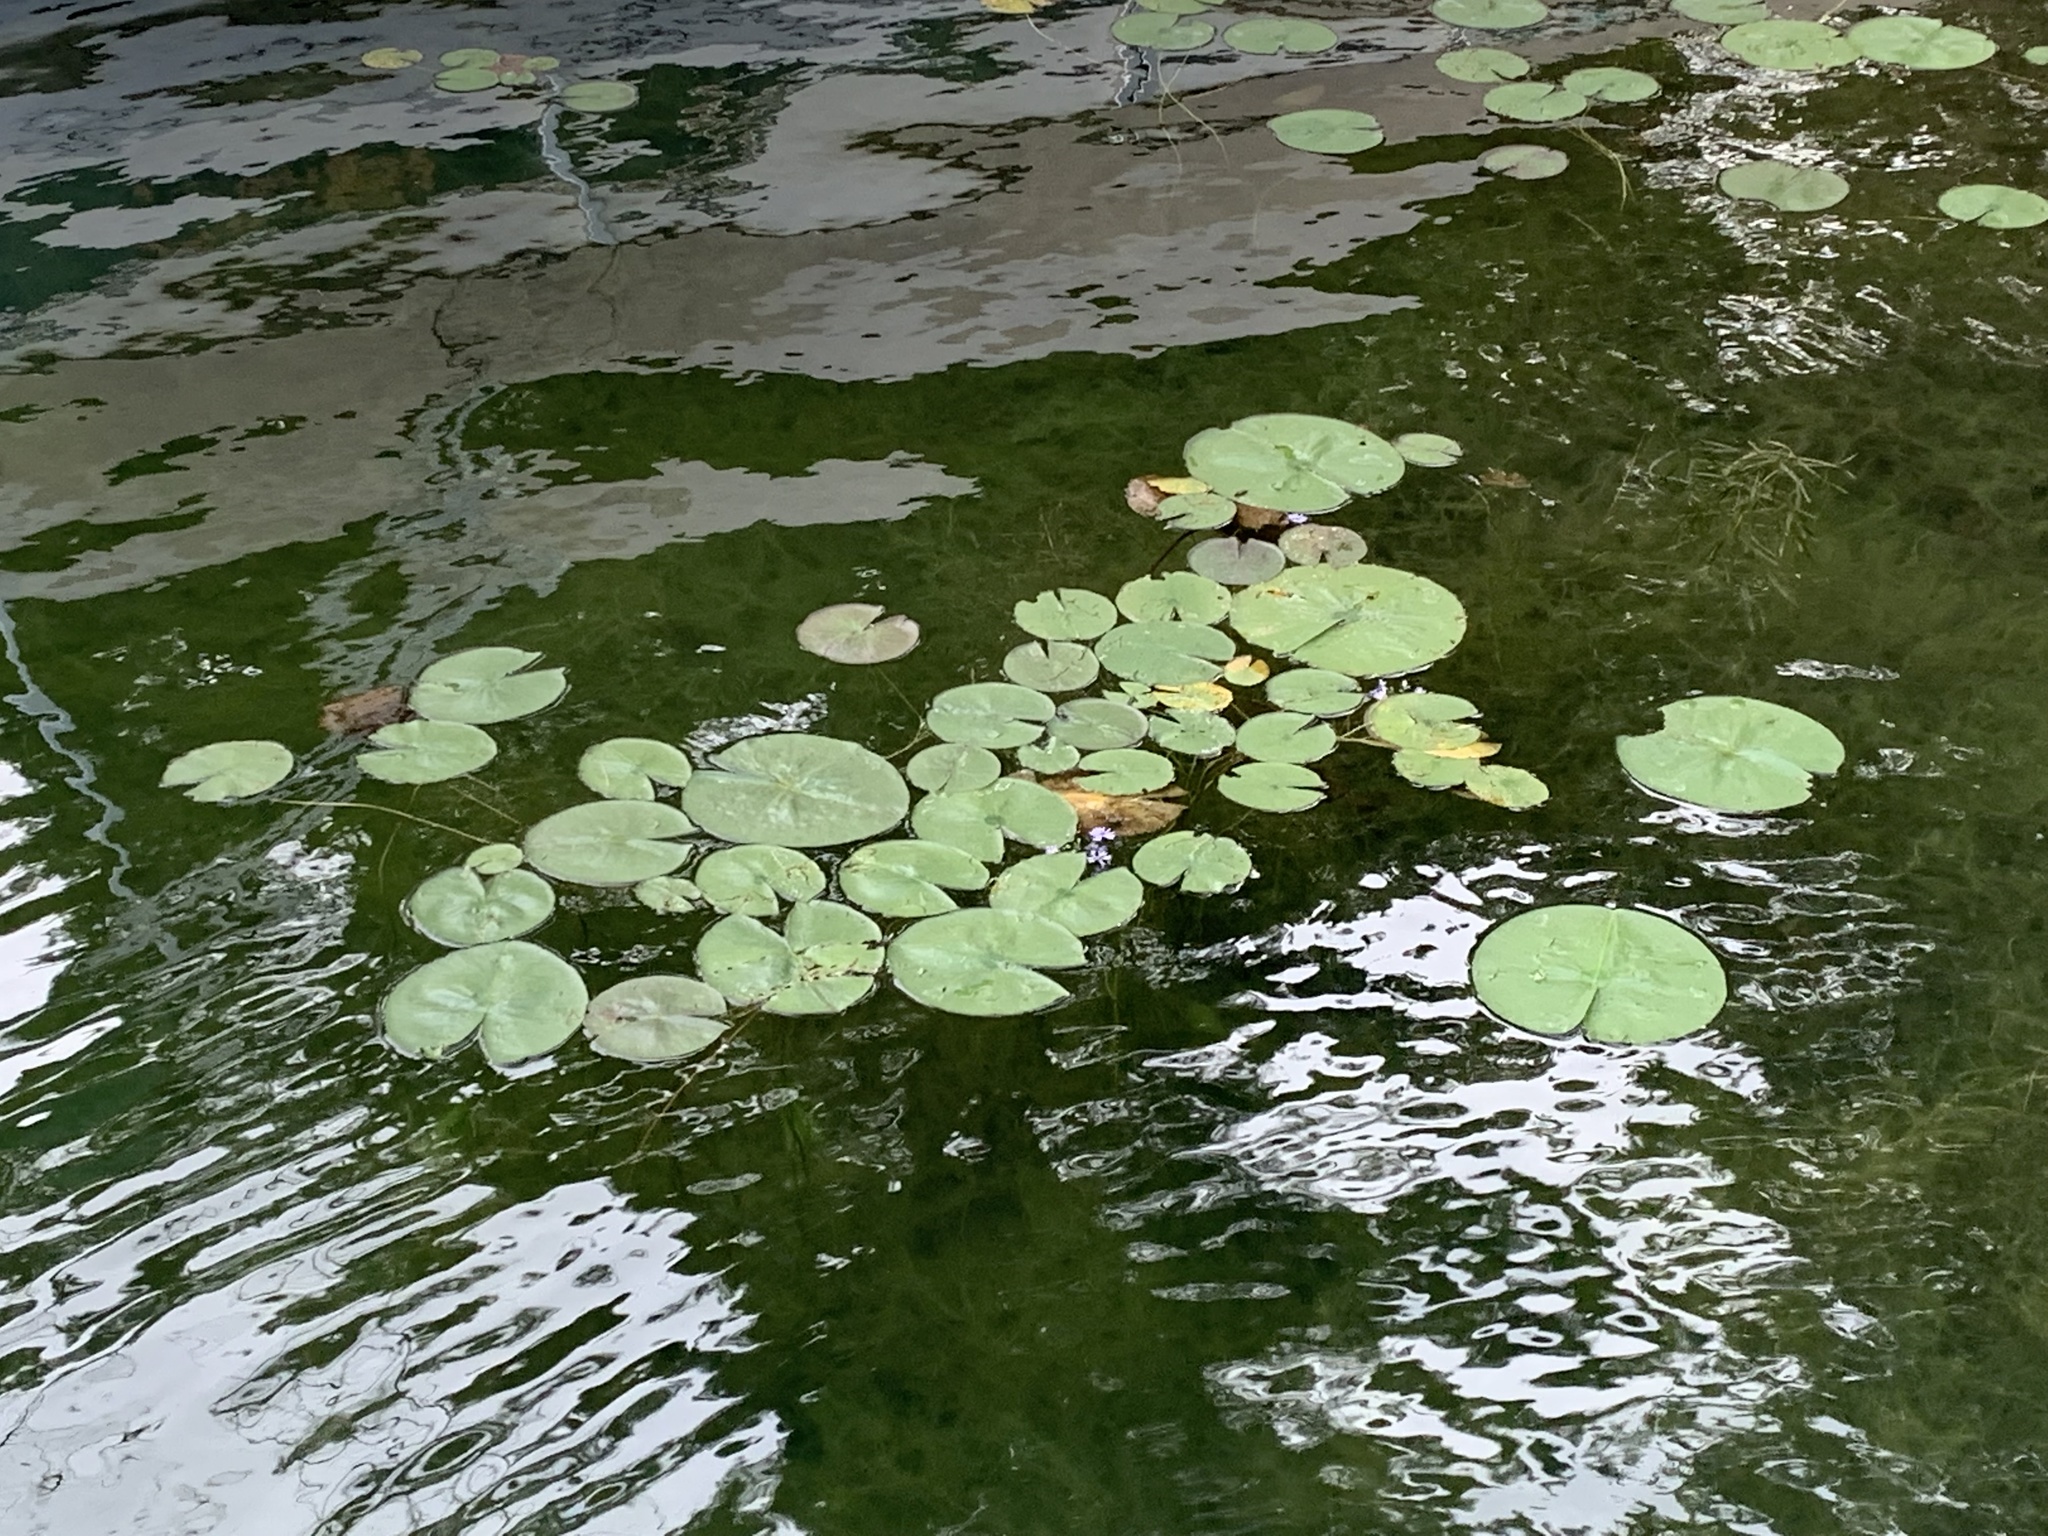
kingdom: Plantae
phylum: Tracheophyta
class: Magnoliopsida
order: Nymphaeales
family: Nymphaeaceae
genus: Nymphaea
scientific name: Nymphaea odorata
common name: Fragrant water-lily
